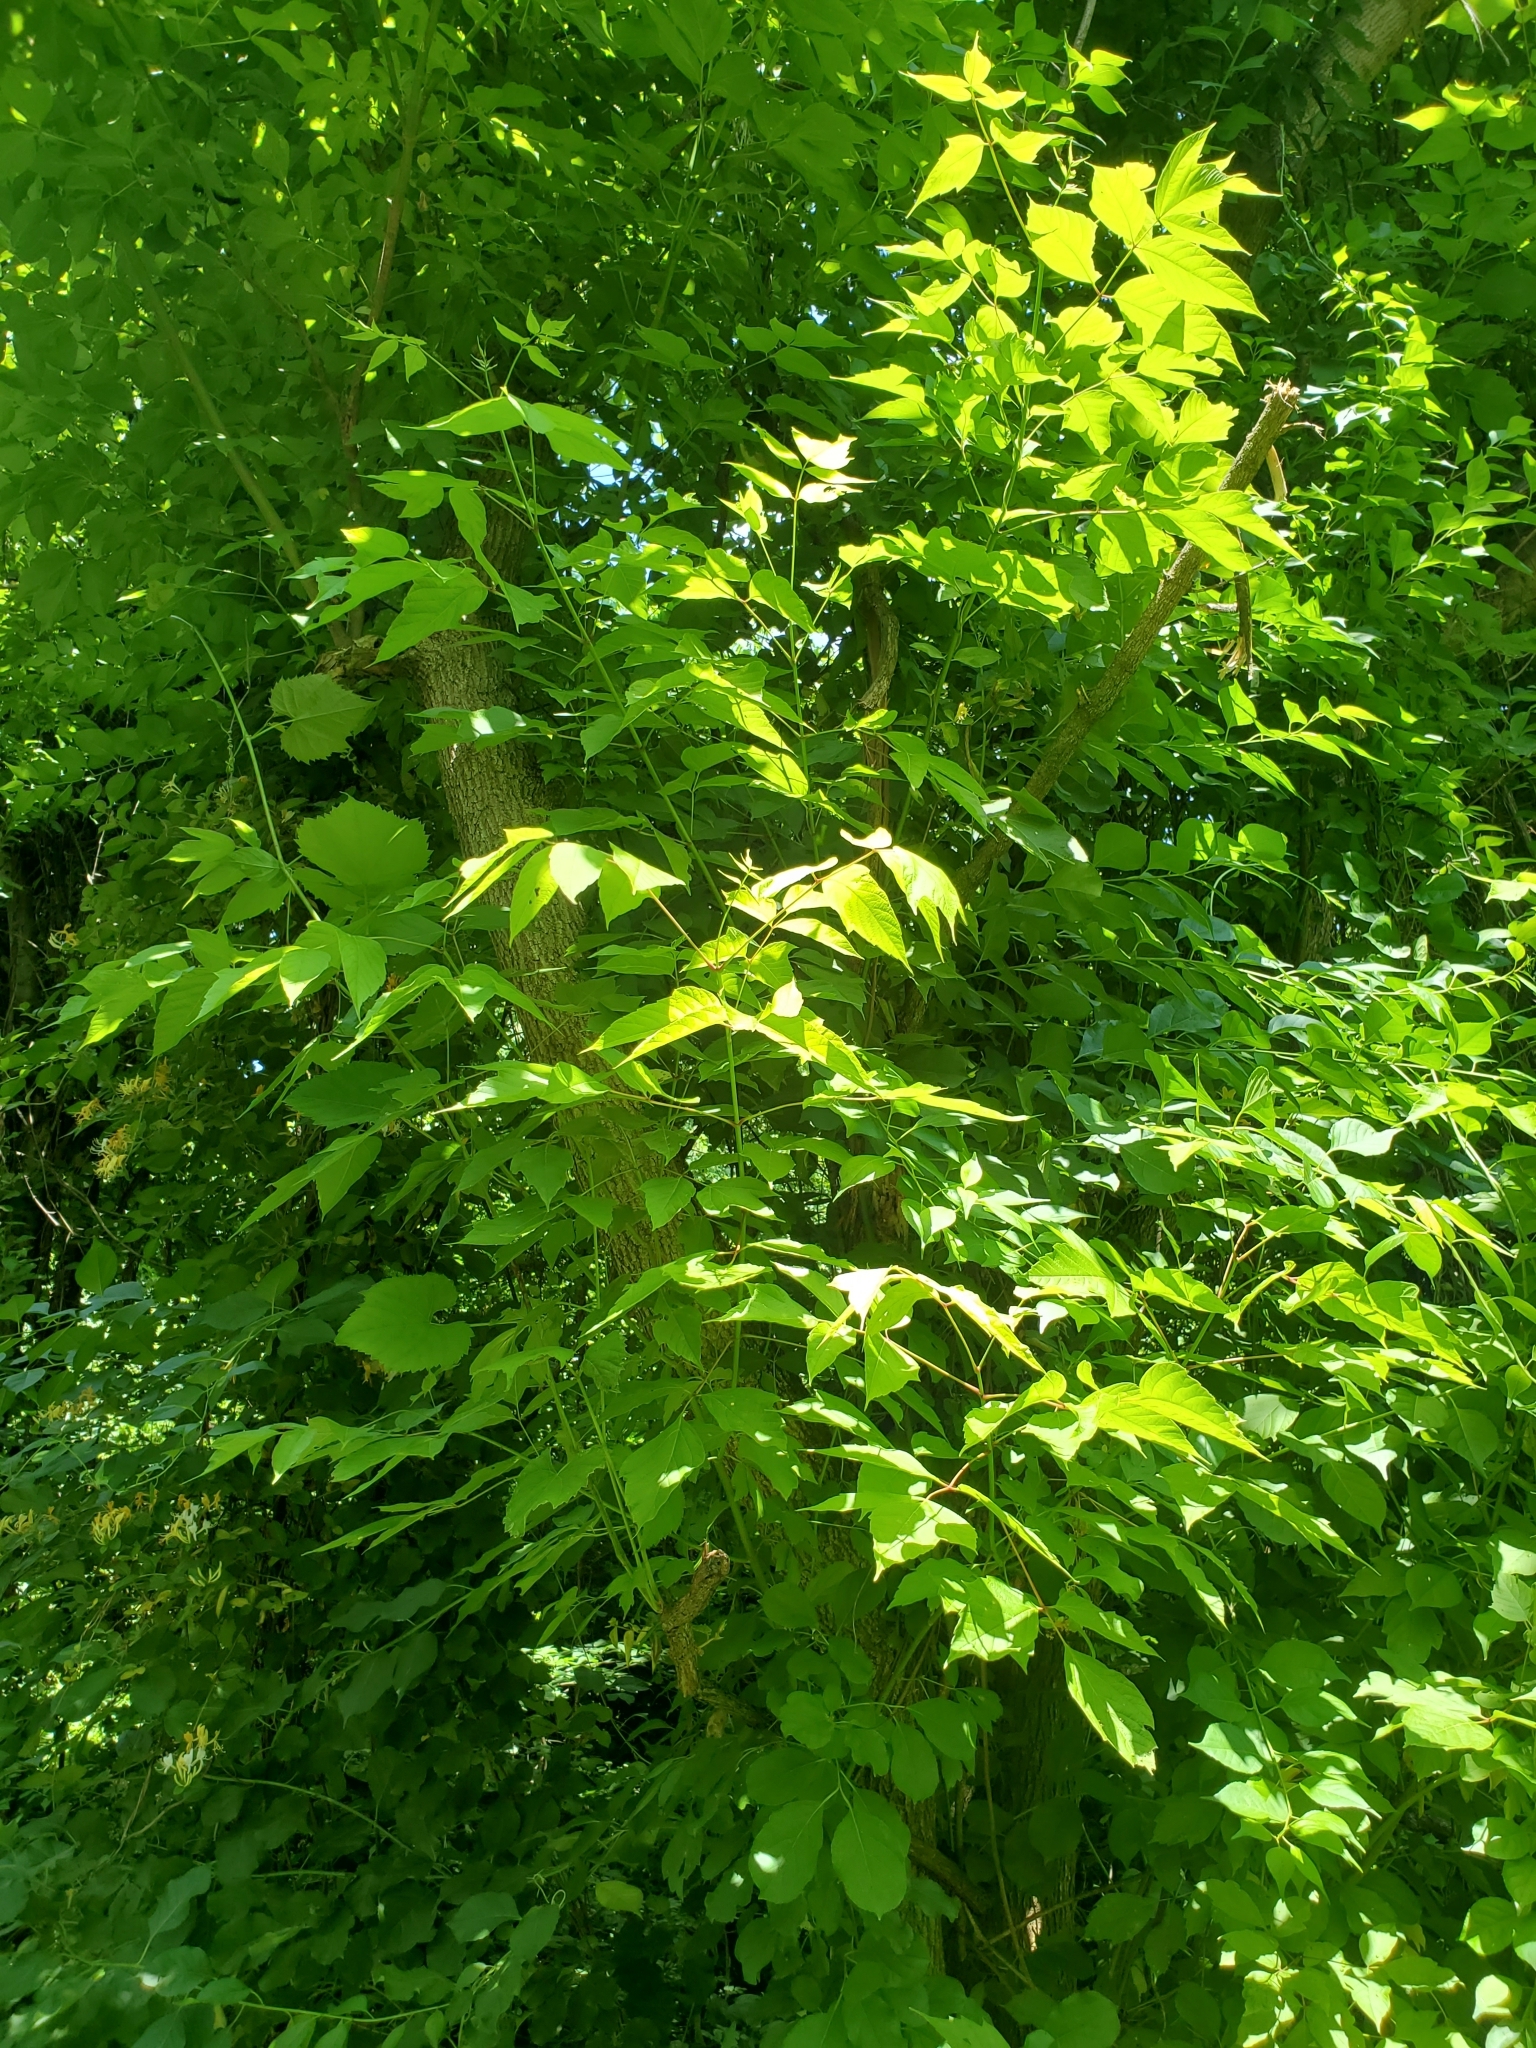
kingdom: Plantae
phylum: Tracheophyta
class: Magnoliopsida
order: Sapindales
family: Sapindaceae
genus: Acer
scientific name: Acer negundo
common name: Ashleaf maple
